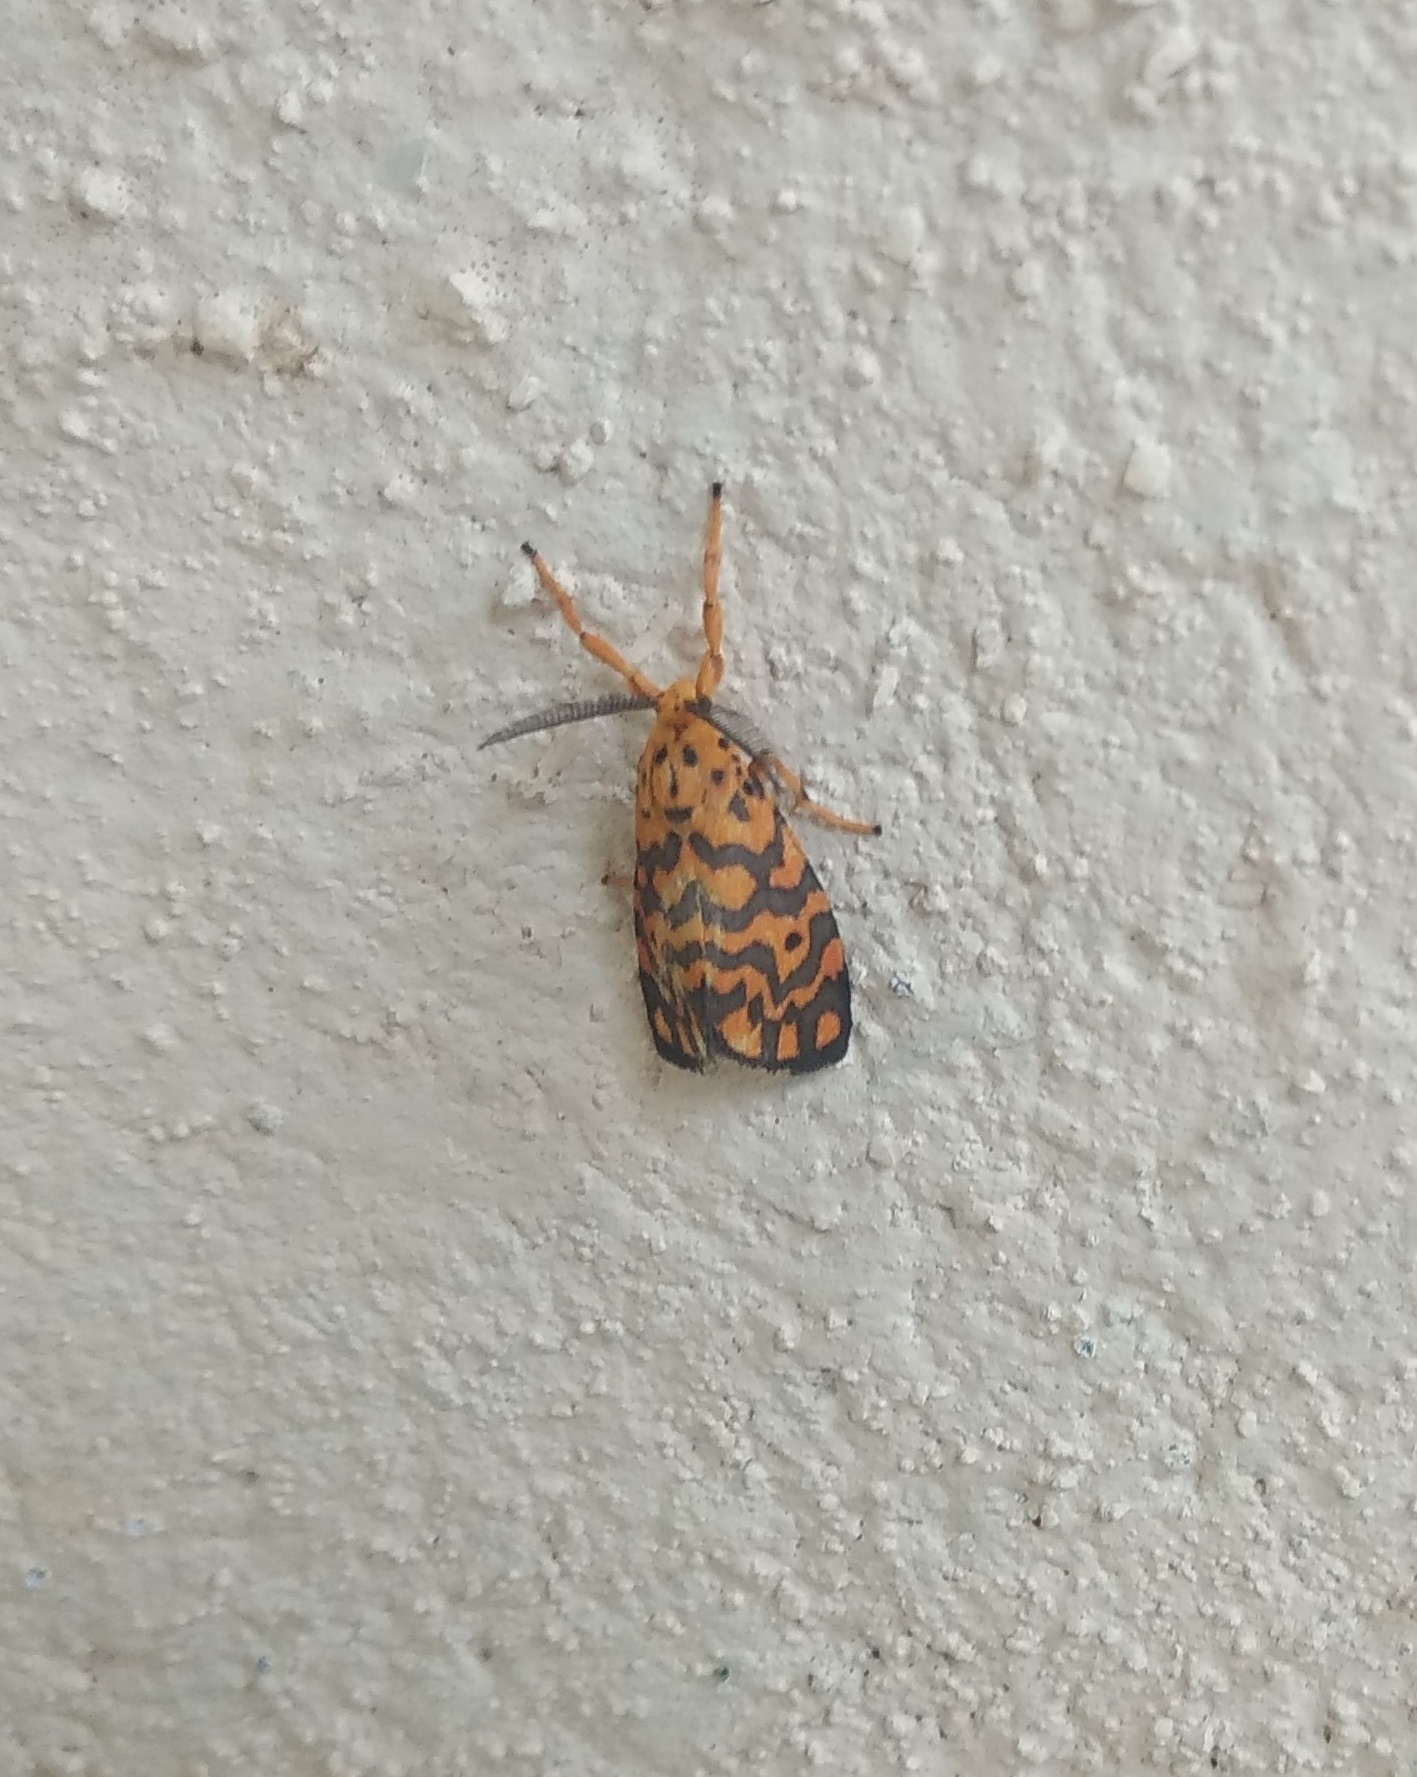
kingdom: Animalia
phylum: Arthropoda
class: Insecta
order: Lepidoptera
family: Erebidae
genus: Nepita
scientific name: Nepita conferta
